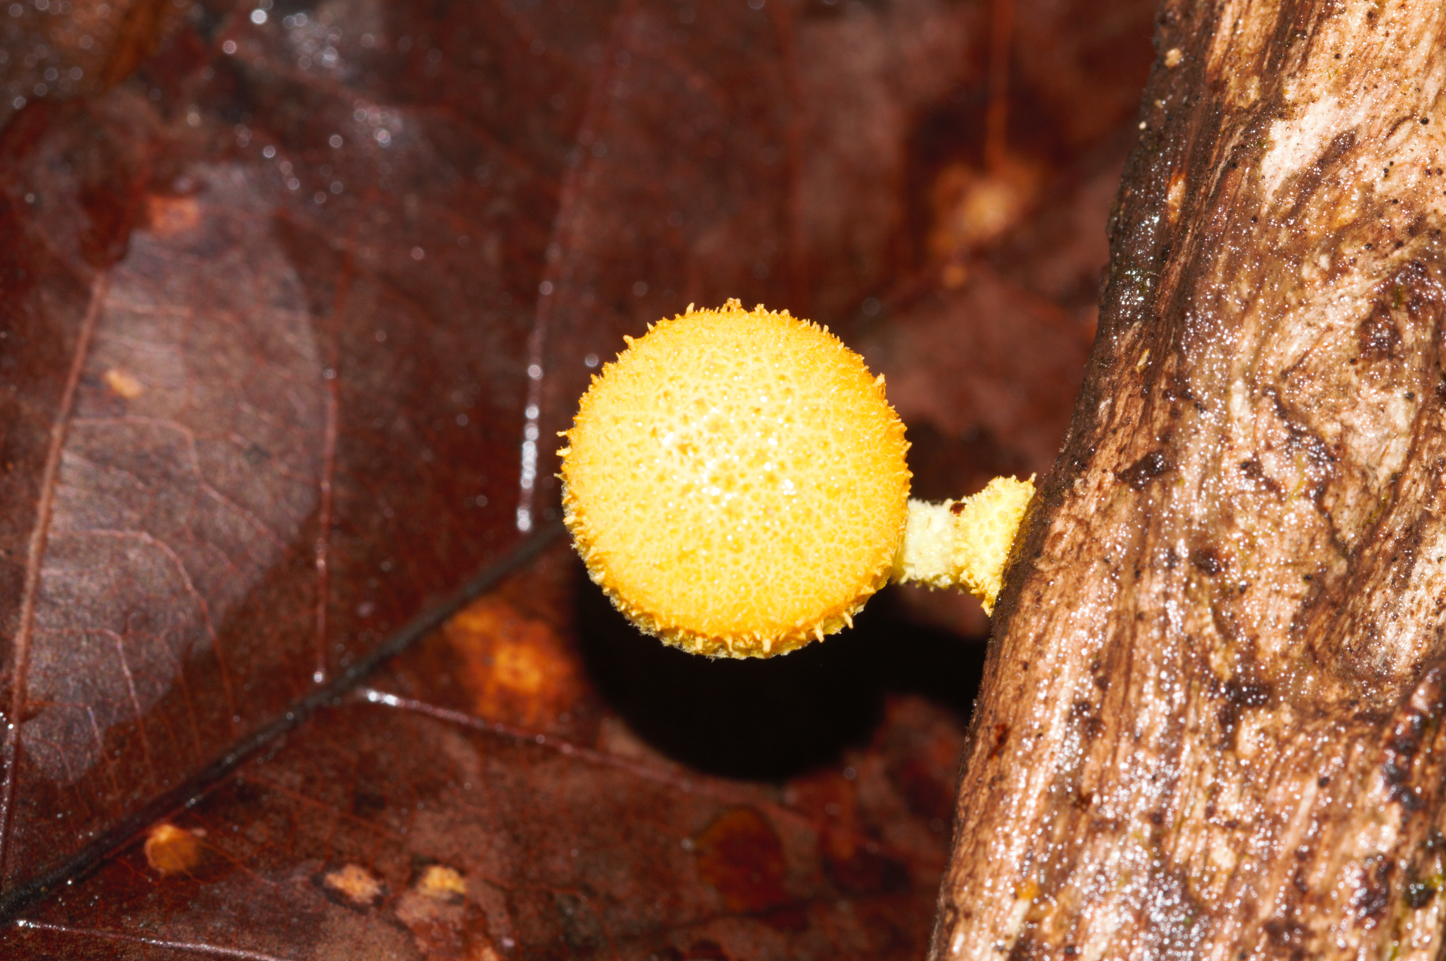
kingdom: Fungi
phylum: Basidiomycota
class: Agaricomycetes
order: Agaricales
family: Physalacriaceae
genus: Cyptotrama
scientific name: Cyptotrama asprata
